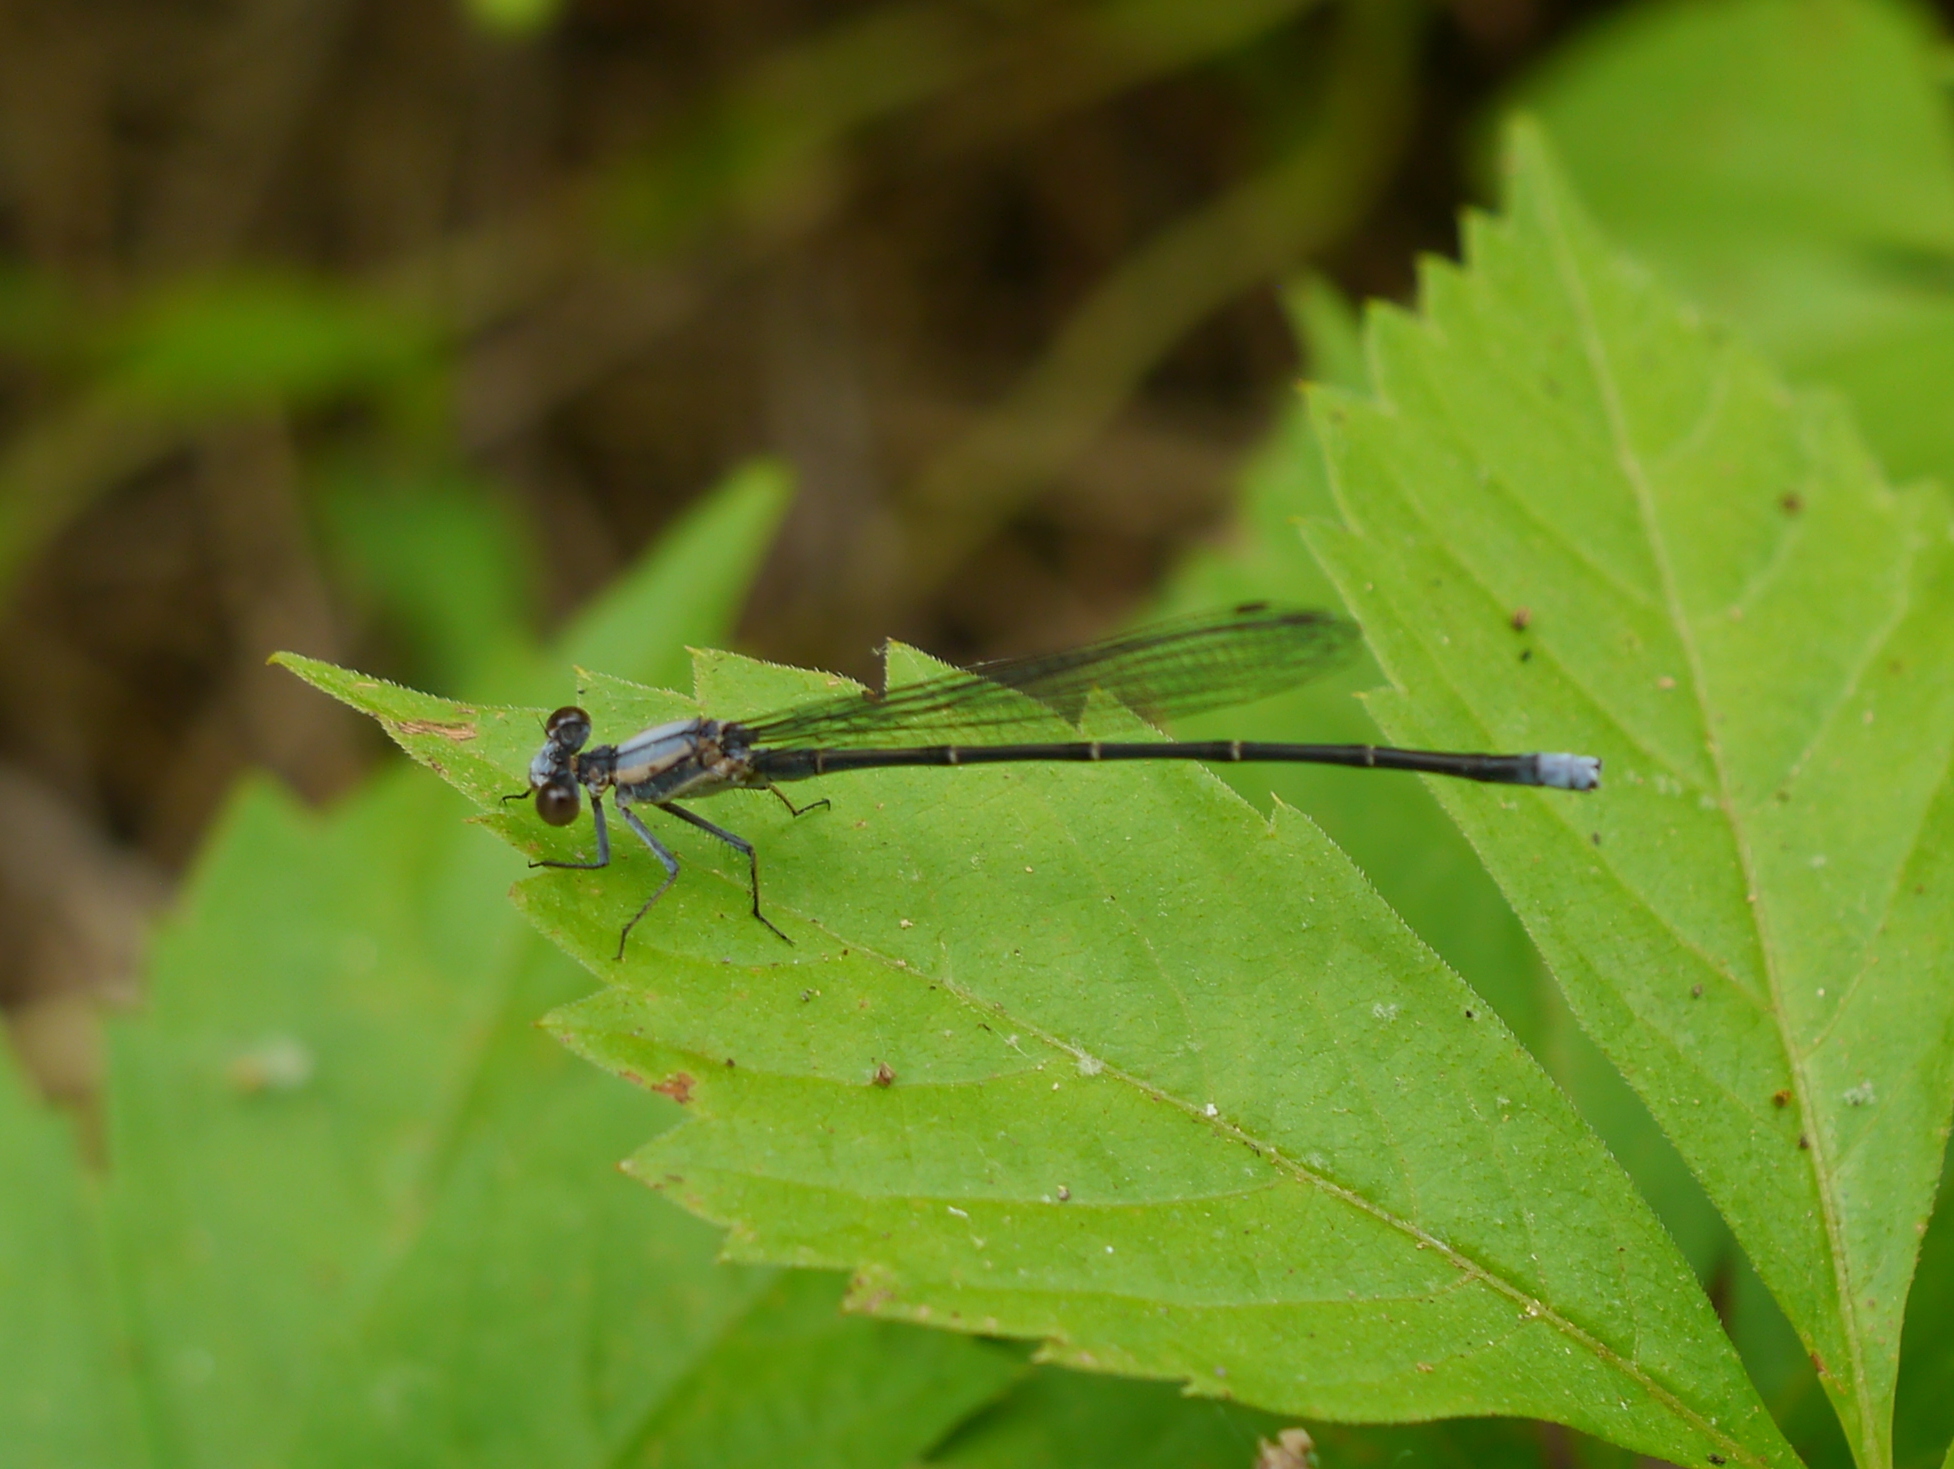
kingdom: Animalia
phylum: Arthropoda
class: Insecta
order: Odonata
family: Coenagrionidae
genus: Argia
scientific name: Argia moesta
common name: Powdered dancer
